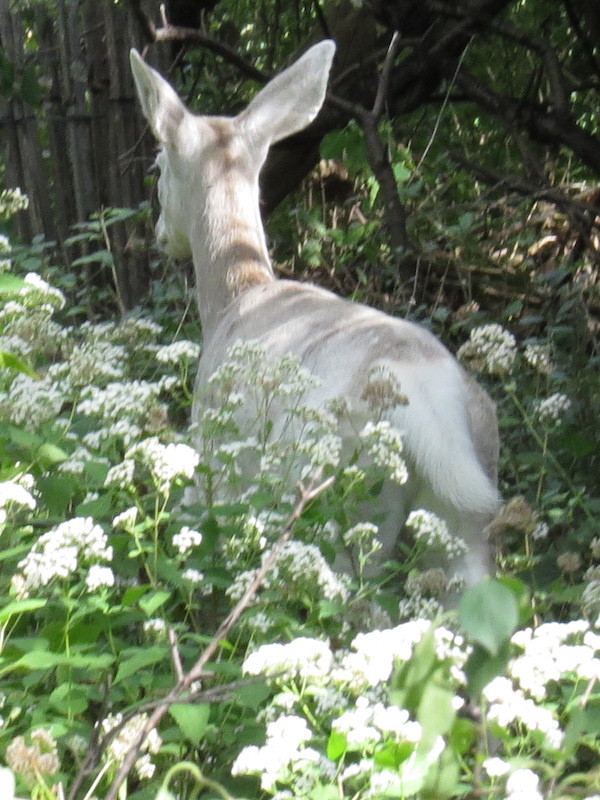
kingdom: Animalia
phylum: Chordata
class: Mammalia
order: Artiodactyla
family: Cervidae
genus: Odocoileus
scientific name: Odocoileus virginianus
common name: White-tailed deer
